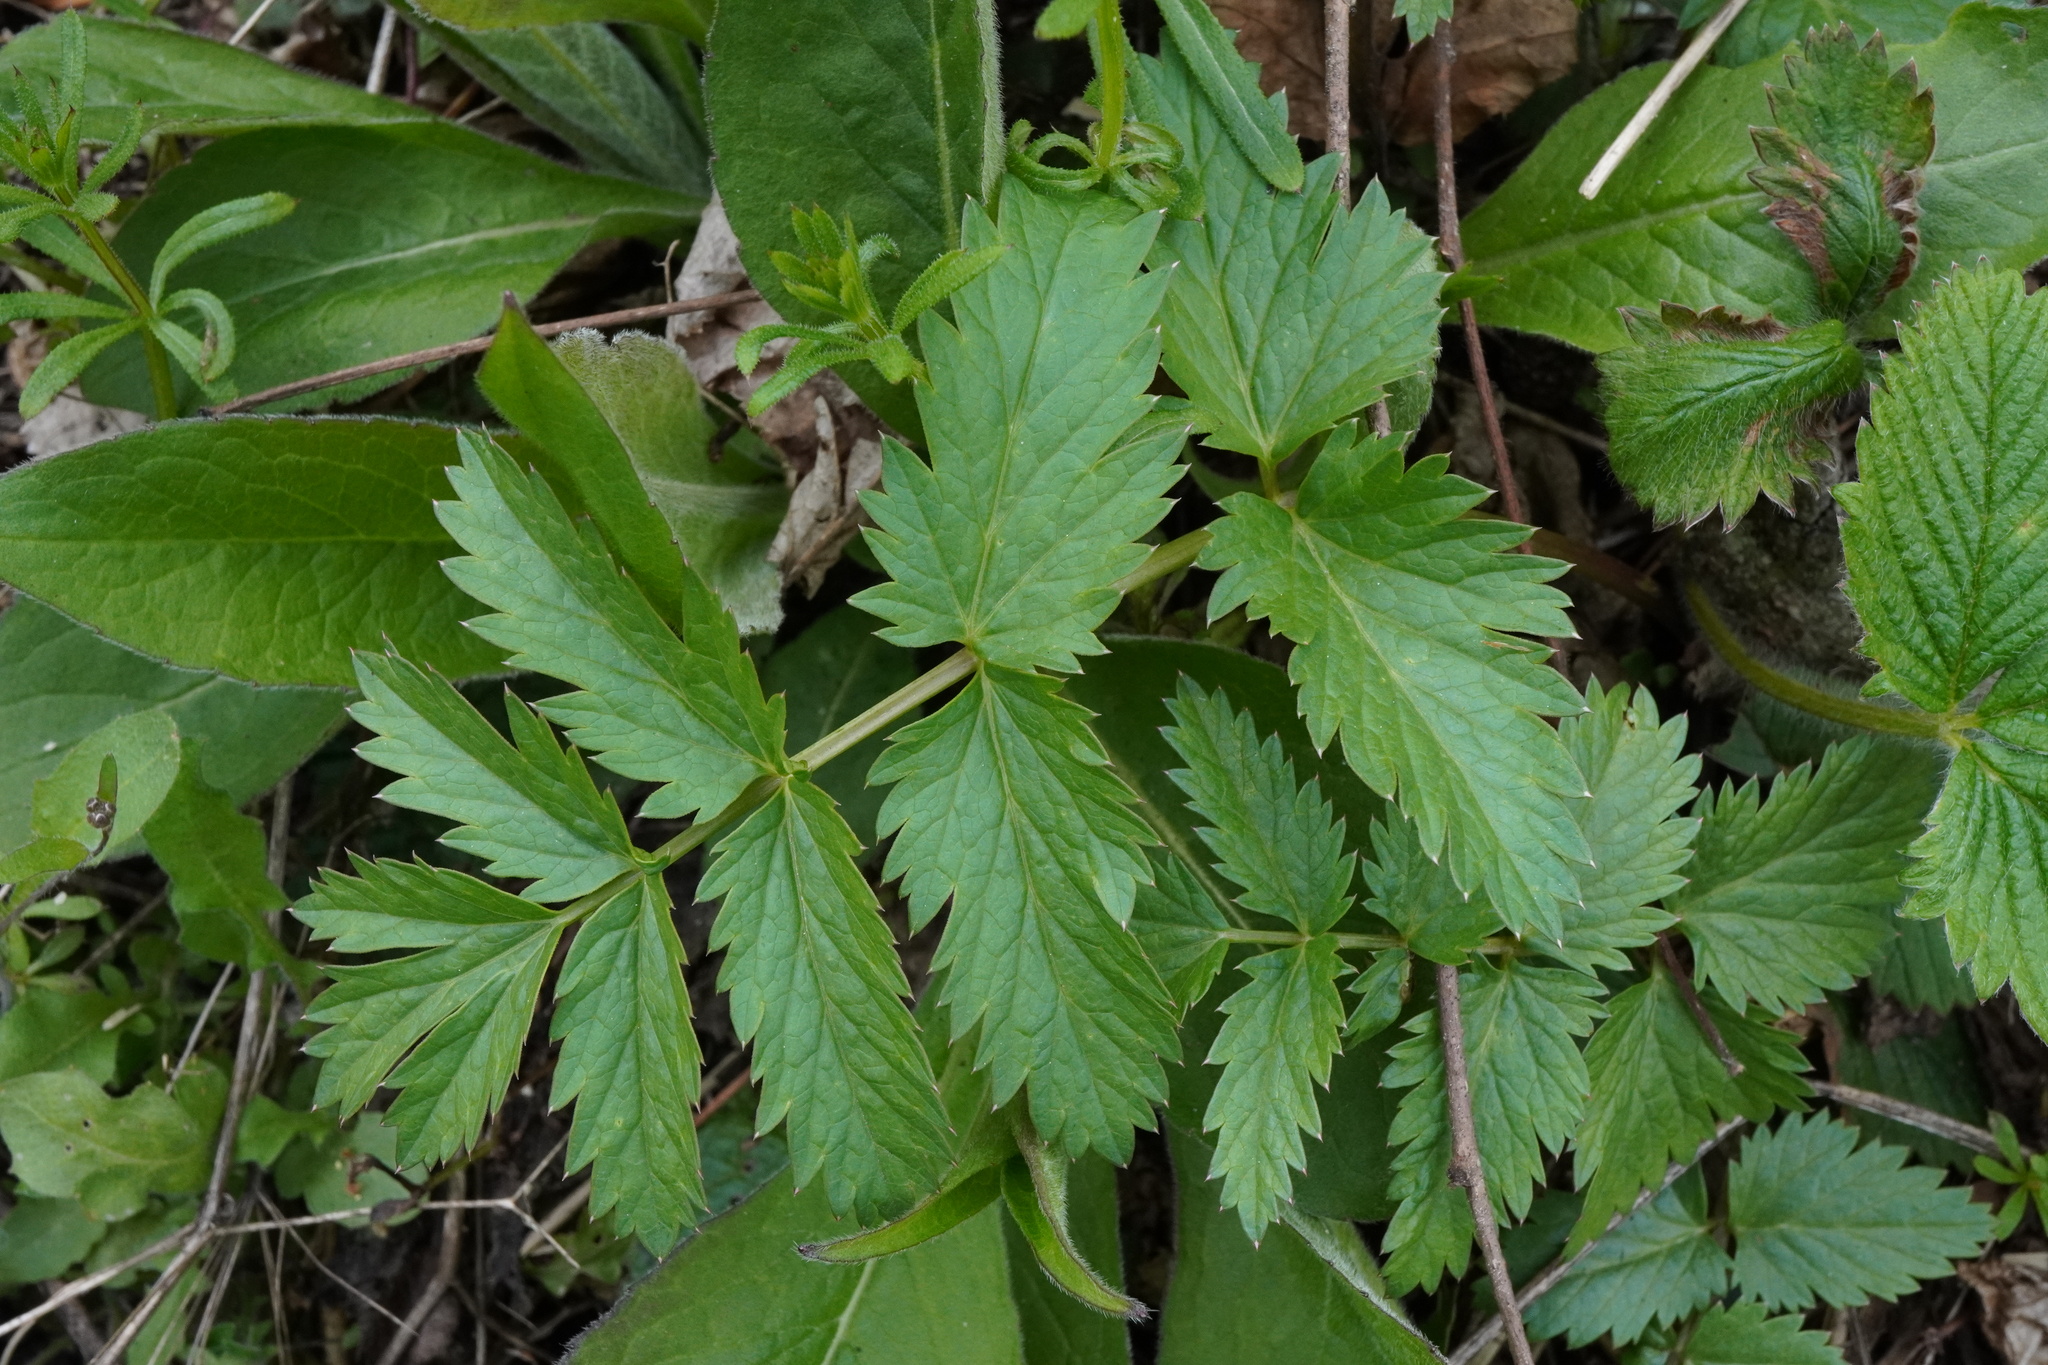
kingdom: Plantae
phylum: Tracheophyta
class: Magnoliopsida
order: Apiales
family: Apiaceae
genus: Pimpinella
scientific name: Pimpinella major
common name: Greater burnet-saxifrage
